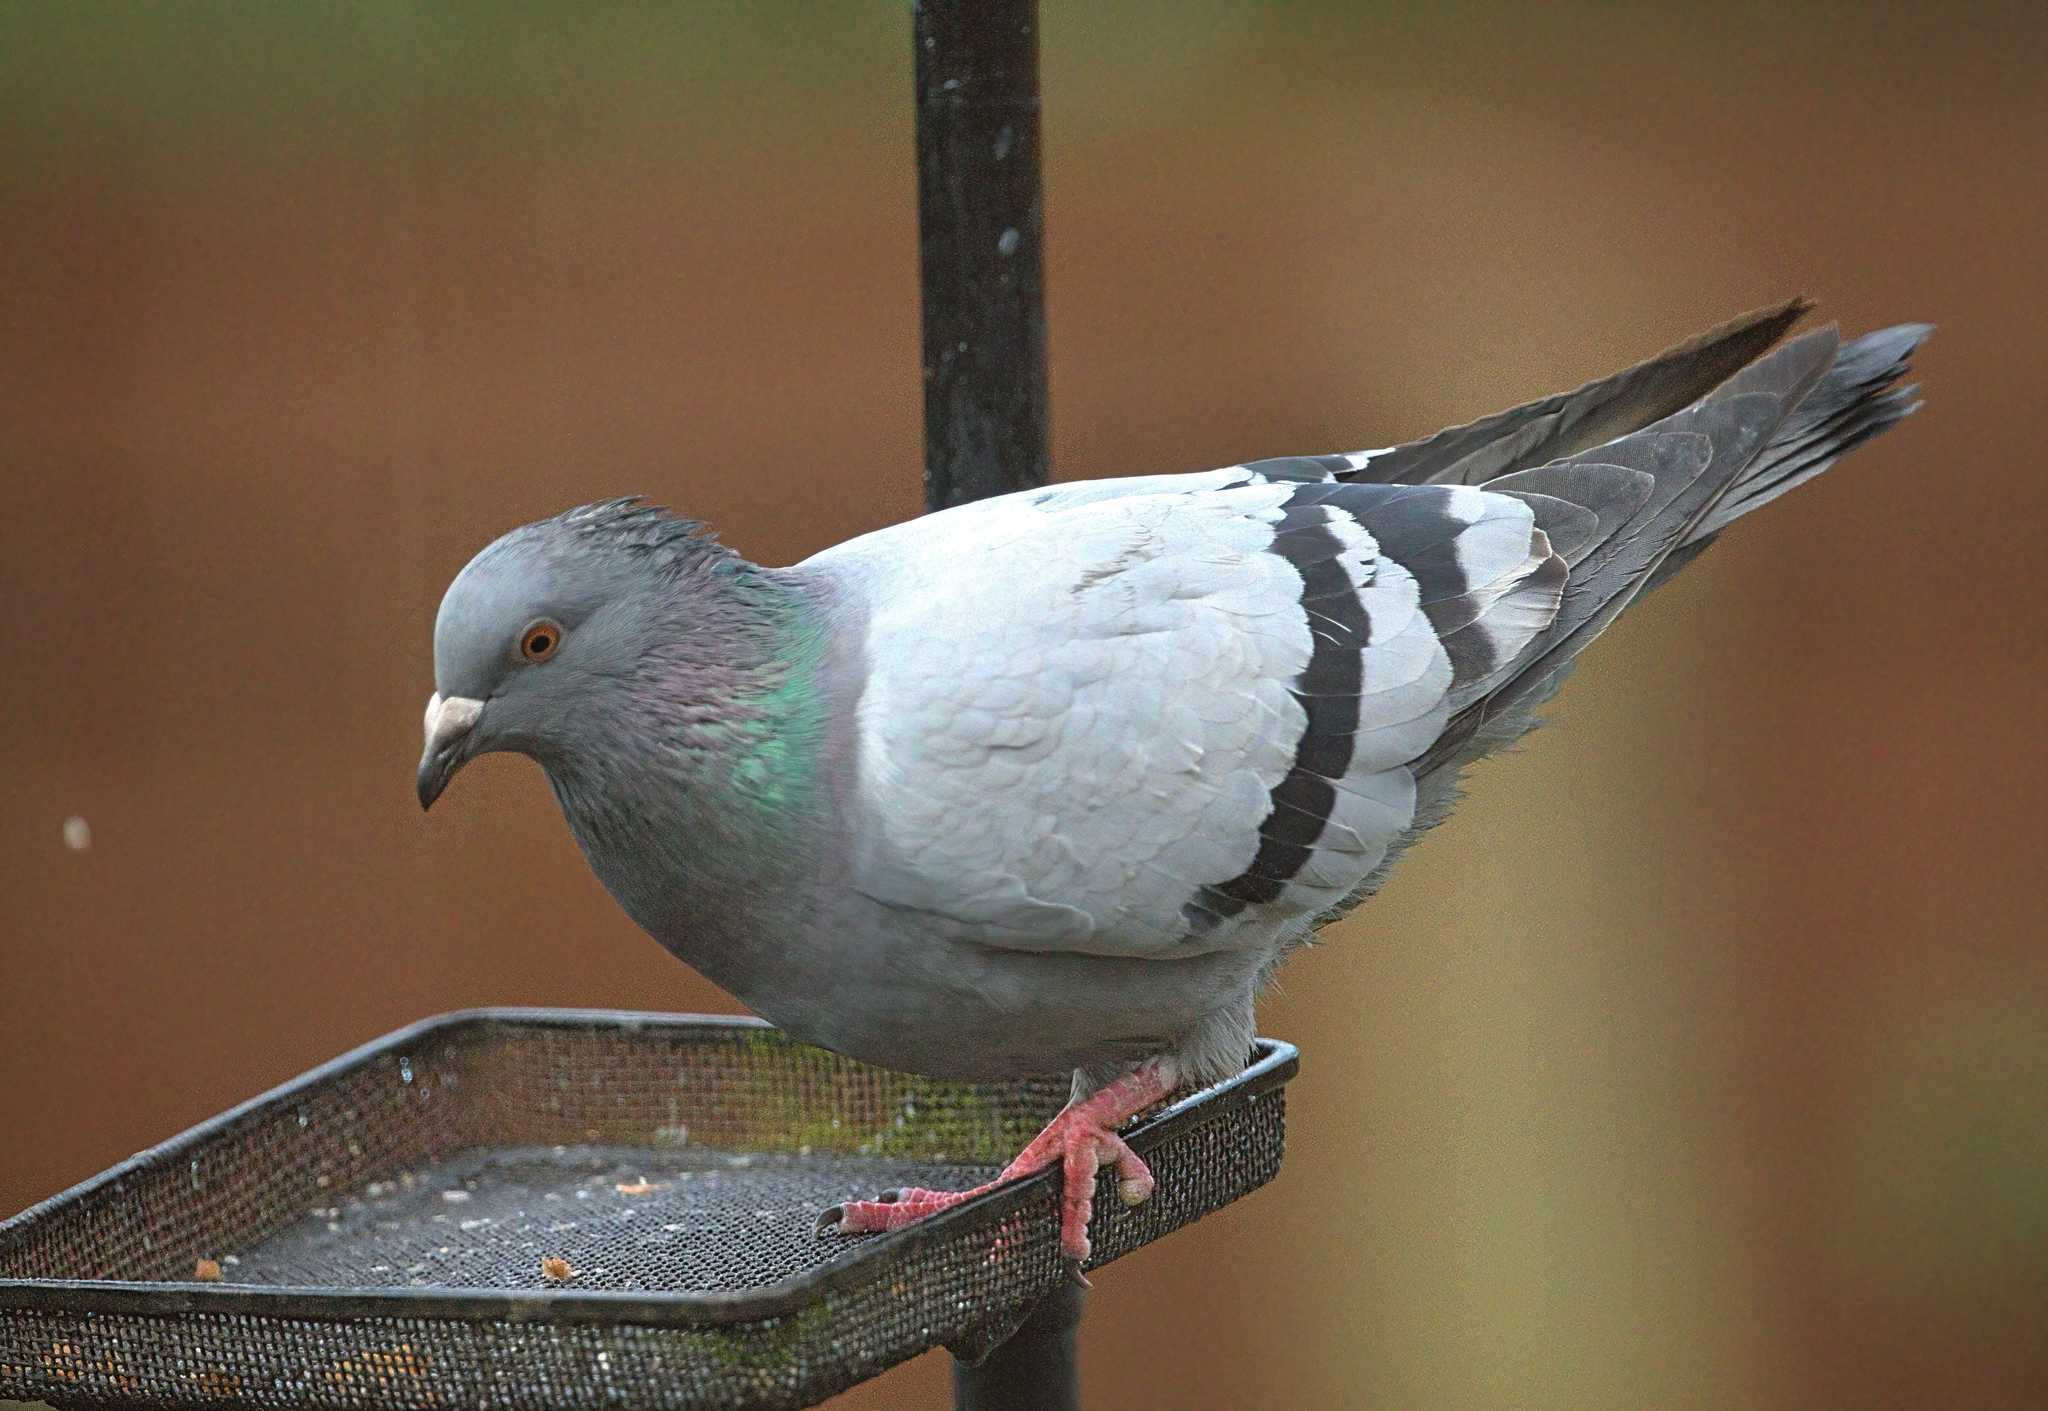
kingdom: Animalia
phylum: Chordata
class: Aves
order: Columbiformes
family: Columbidae
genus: Columba
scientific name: Columba livia
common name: Rock pigeon
